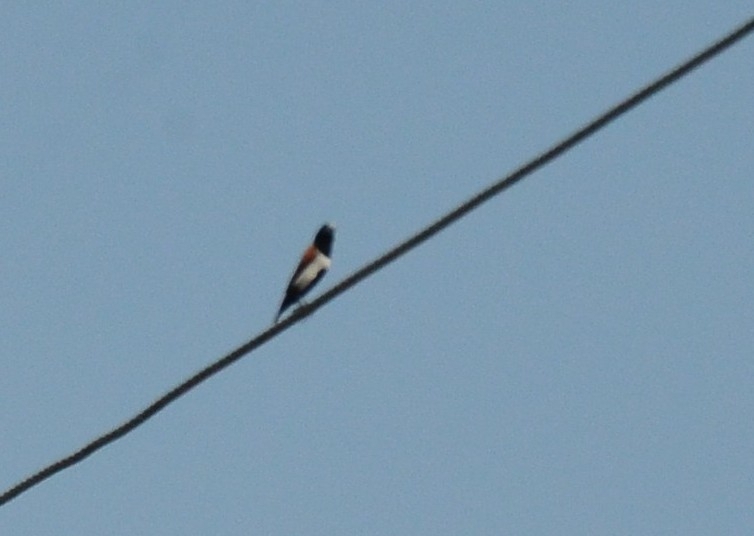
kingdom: Animalia
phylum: Chordata
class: Aves
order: Passeriformes
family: Estrildidae
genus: Lonchura
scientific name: Lonchura malacca
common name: Tricolored munia
